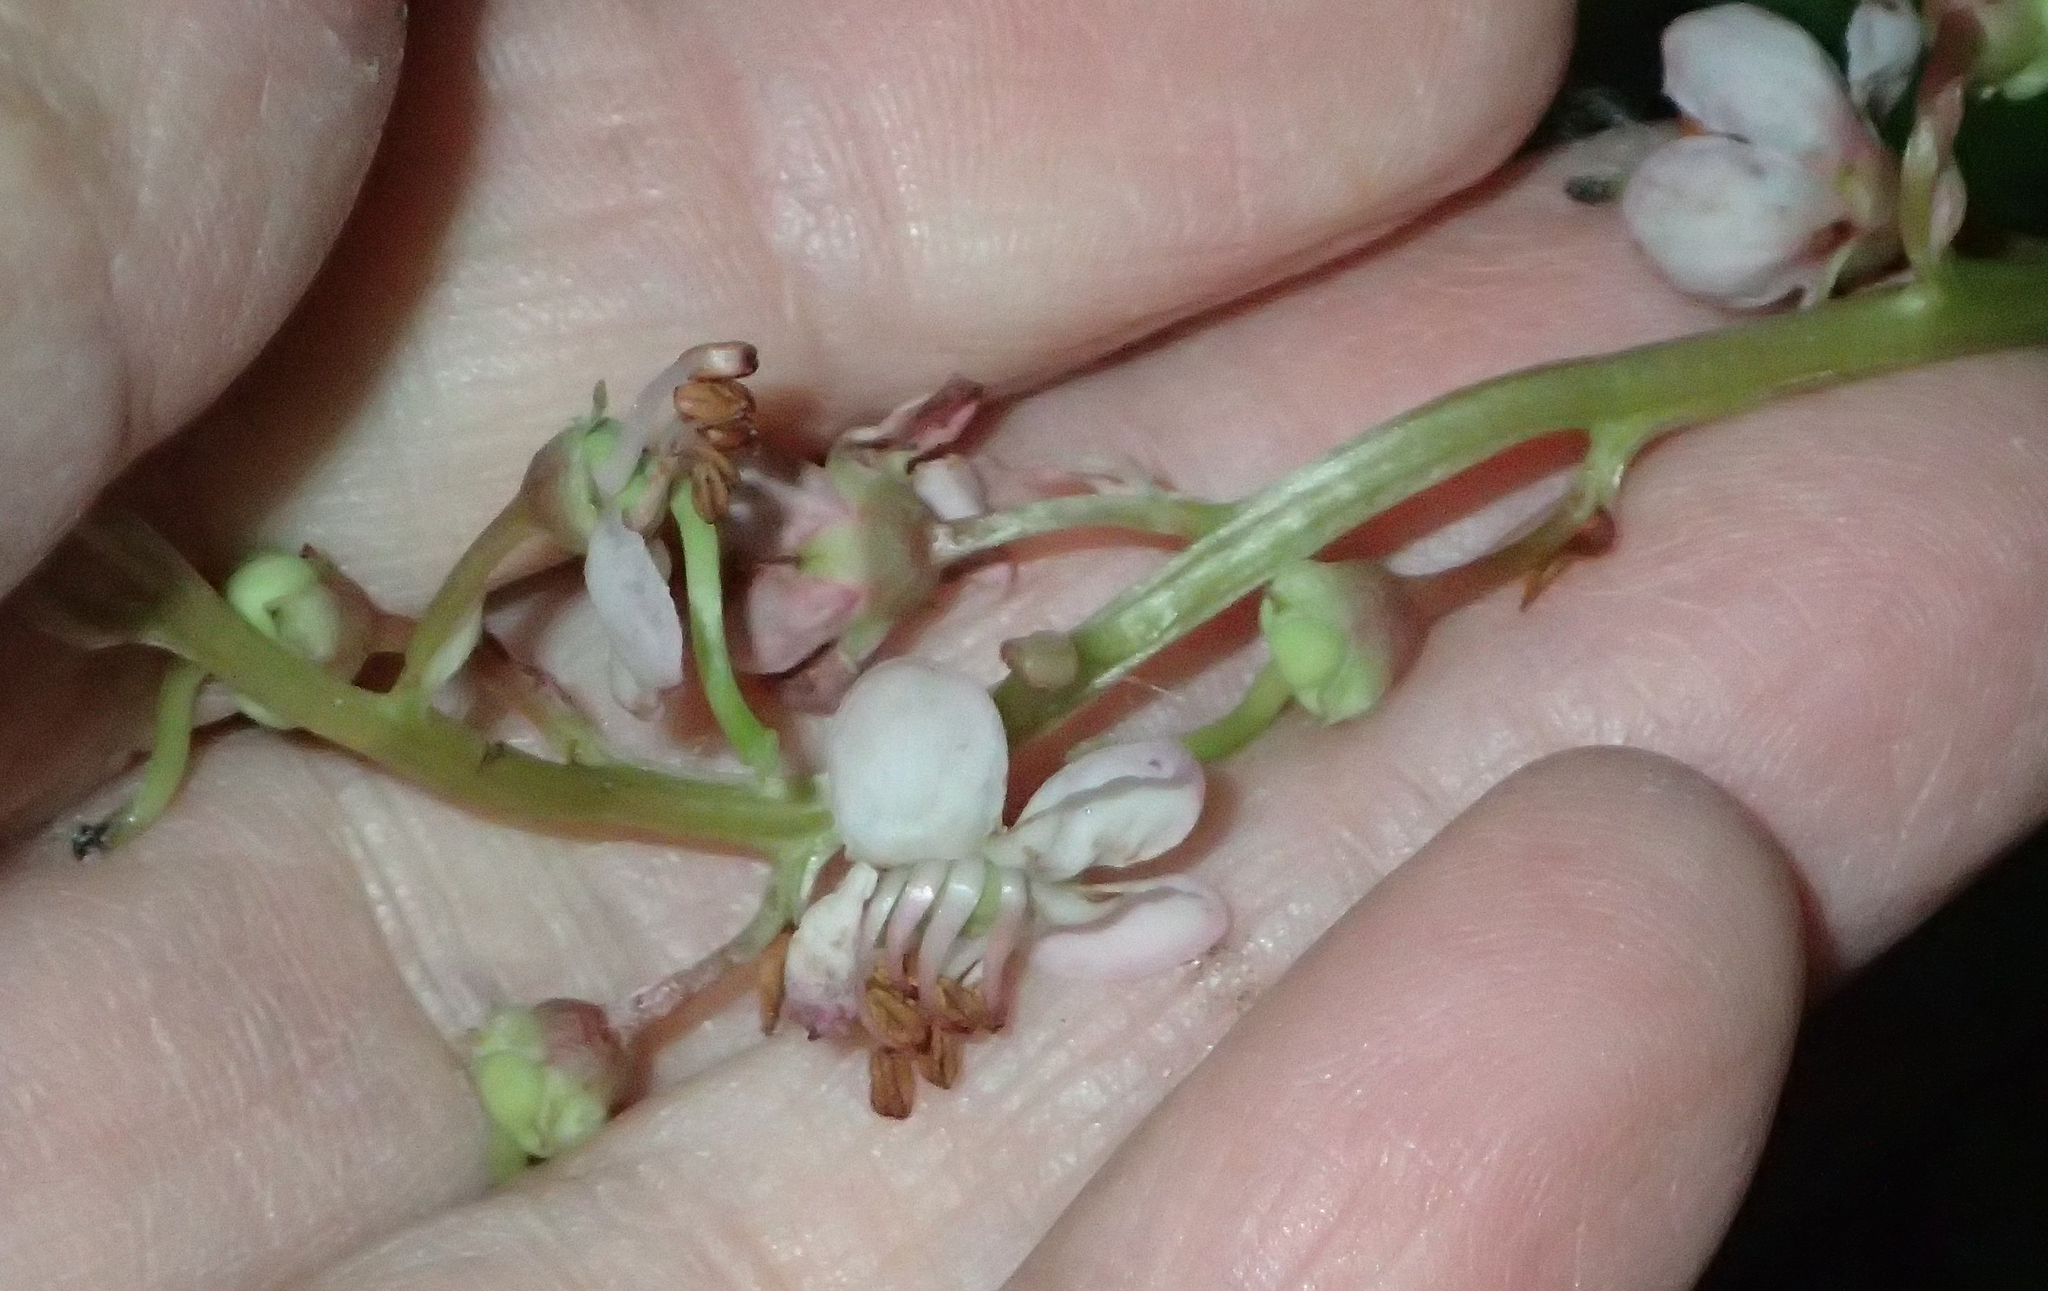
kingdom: Plantae
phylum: Tracheophyta
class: Magnoliopsida
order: Ericales
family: Ericaceae
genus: Pyrola
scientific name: Pyrola asarifolia
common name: Bog wintergreen
